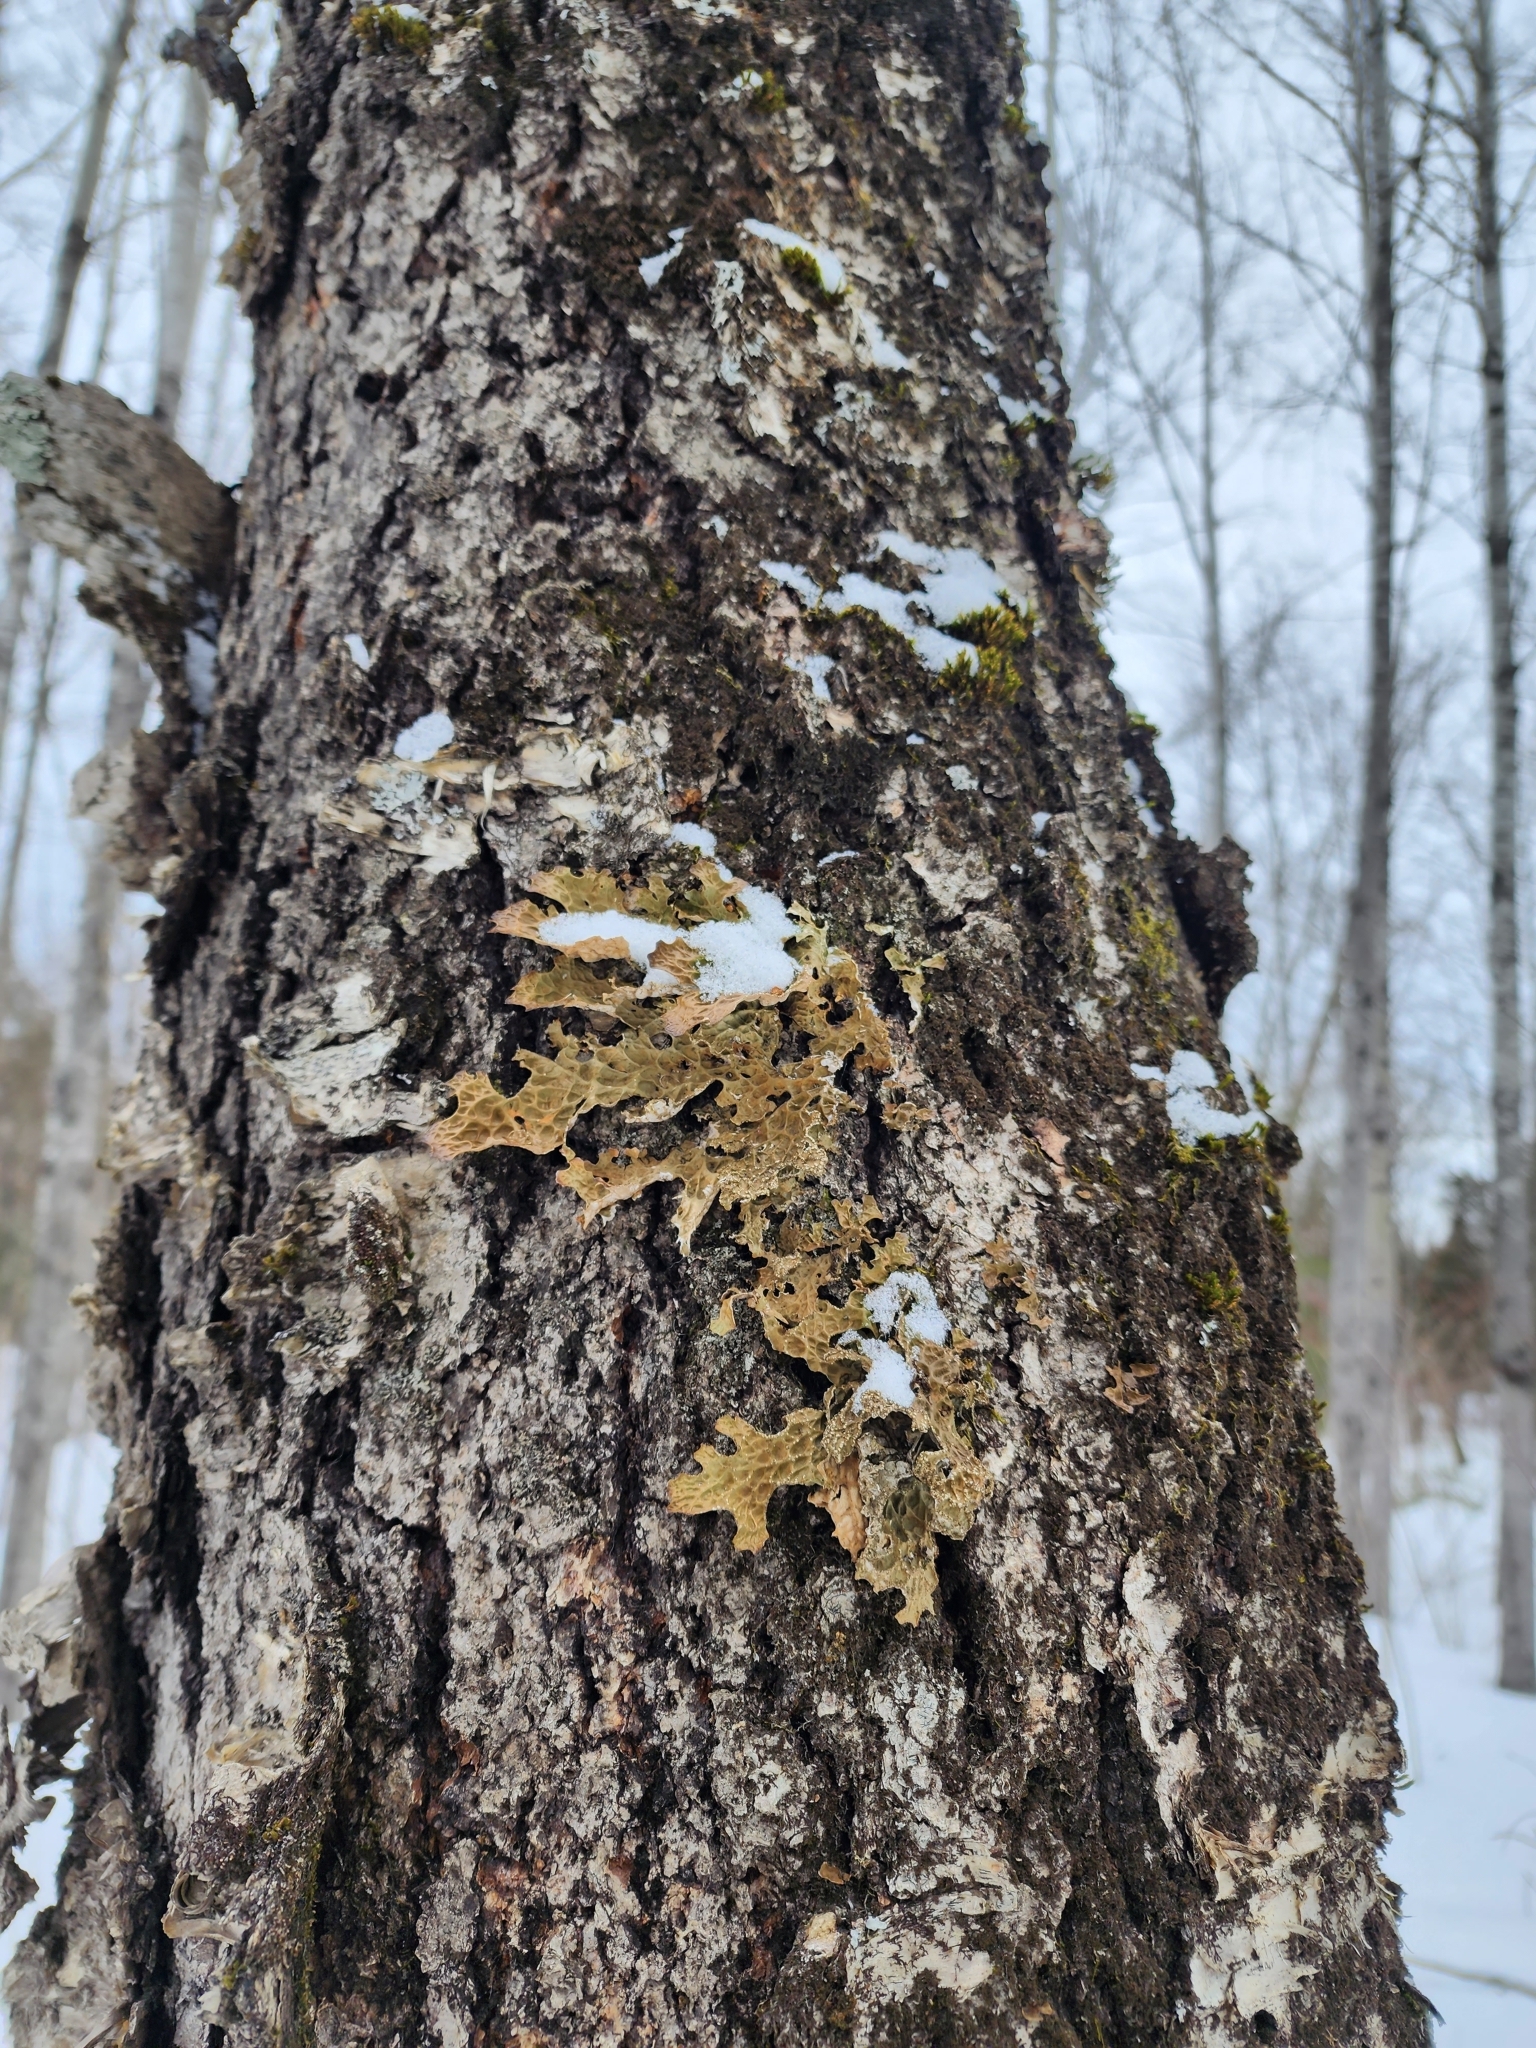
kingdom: Fungi
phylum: Ascomycota
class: Lecanoromycetes
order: Peltigerales
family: Lobariaceae
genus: Lobaria
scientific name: Lobaria pulmonaria
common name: Lungwort
